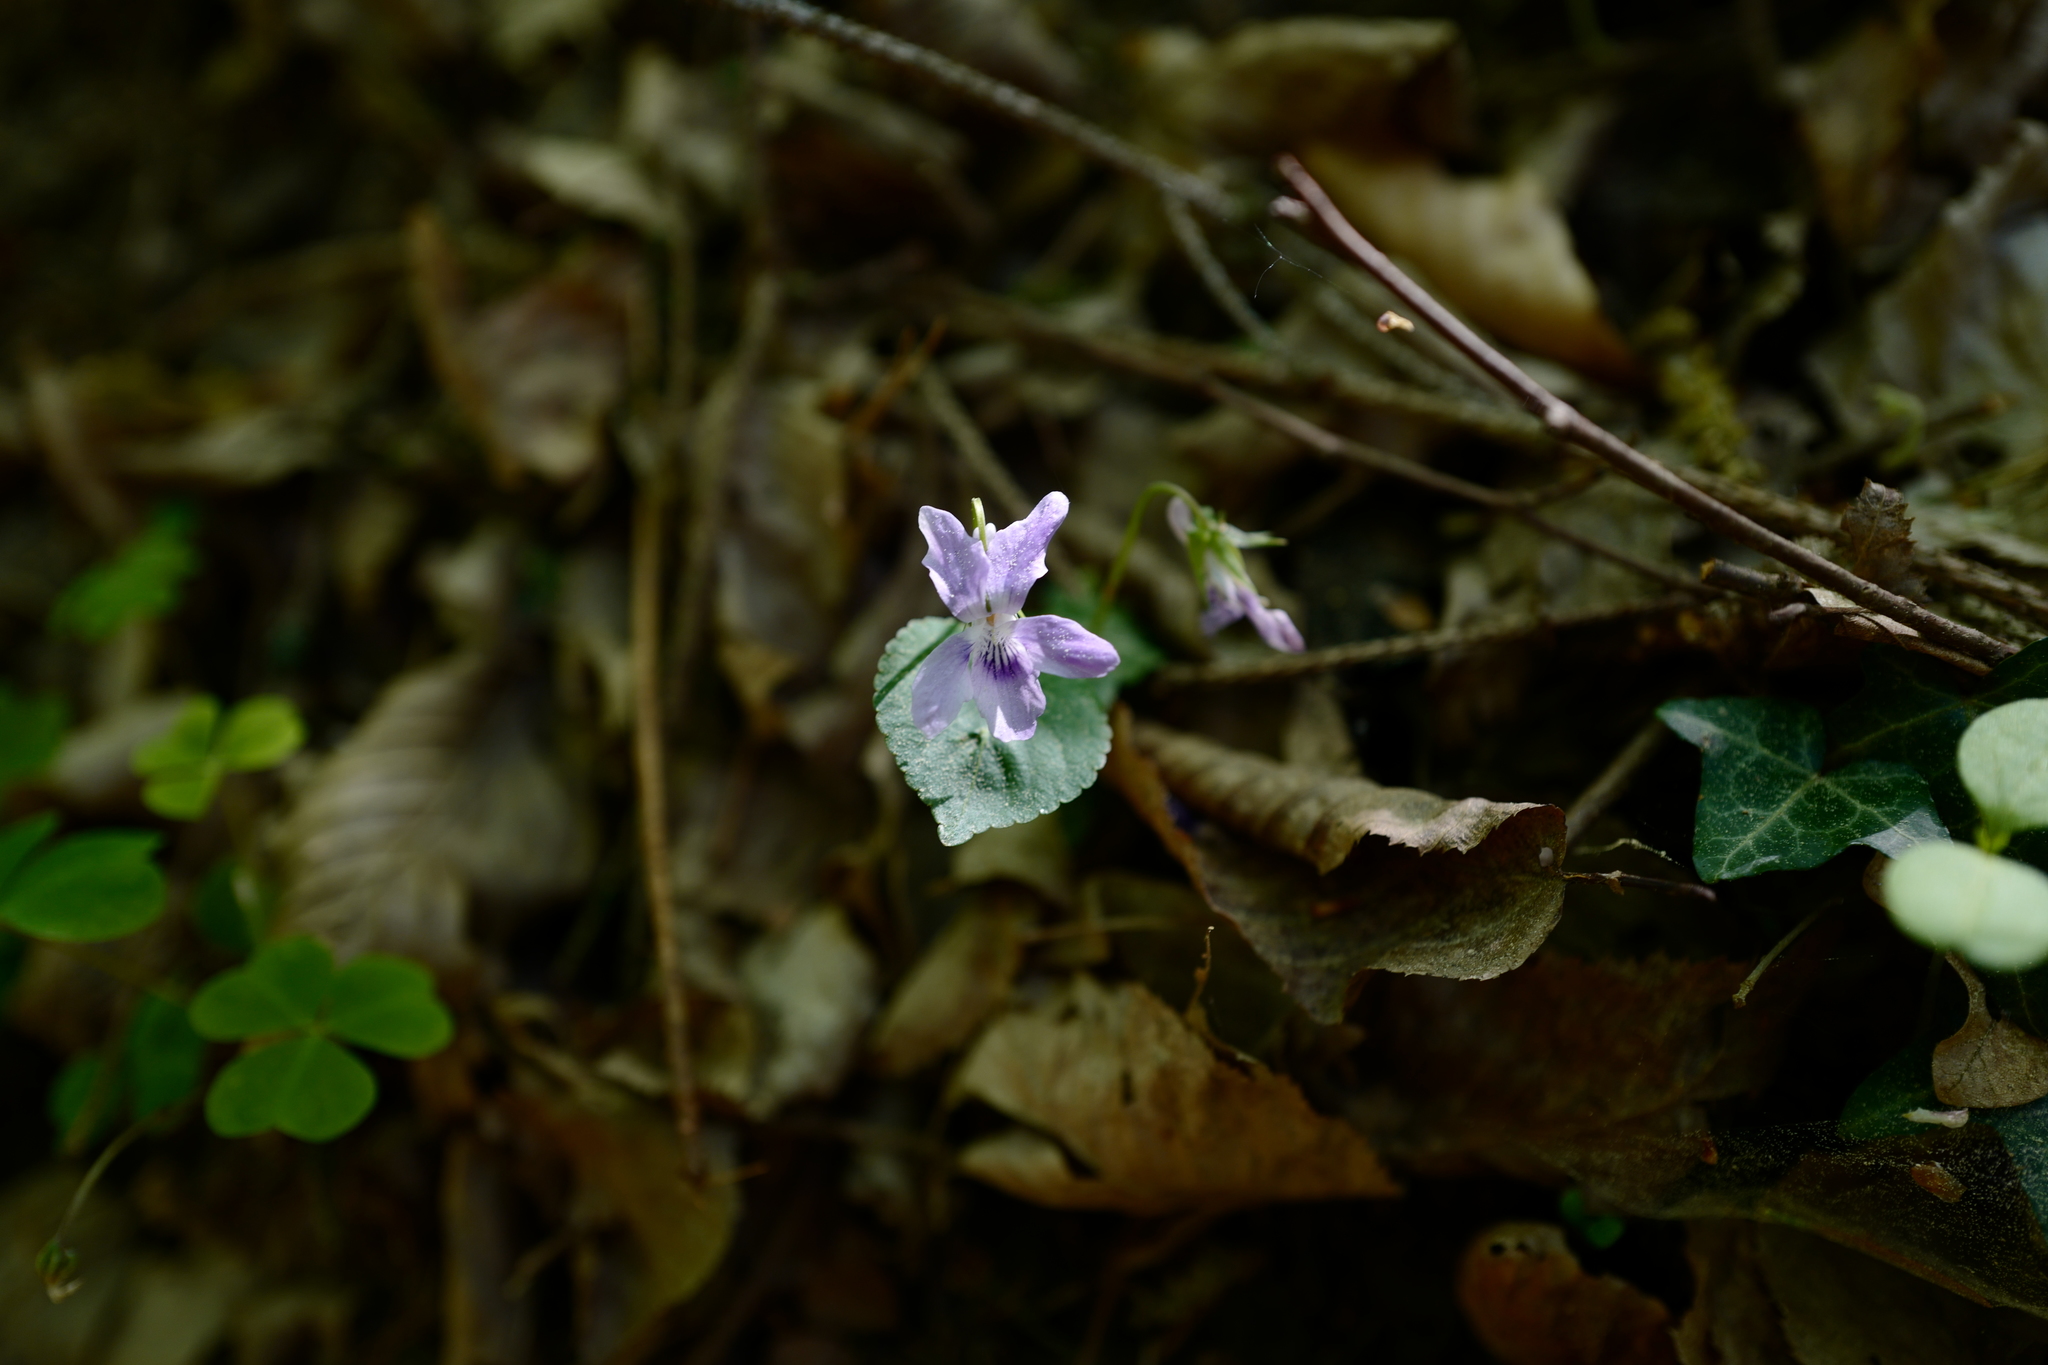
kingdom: Plantae
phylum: Tracheophyta
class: Magnoliopsida
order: Malpighiales
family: Violaceae
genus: Viola
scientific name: Viola riviniana
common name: Common dog-violet
